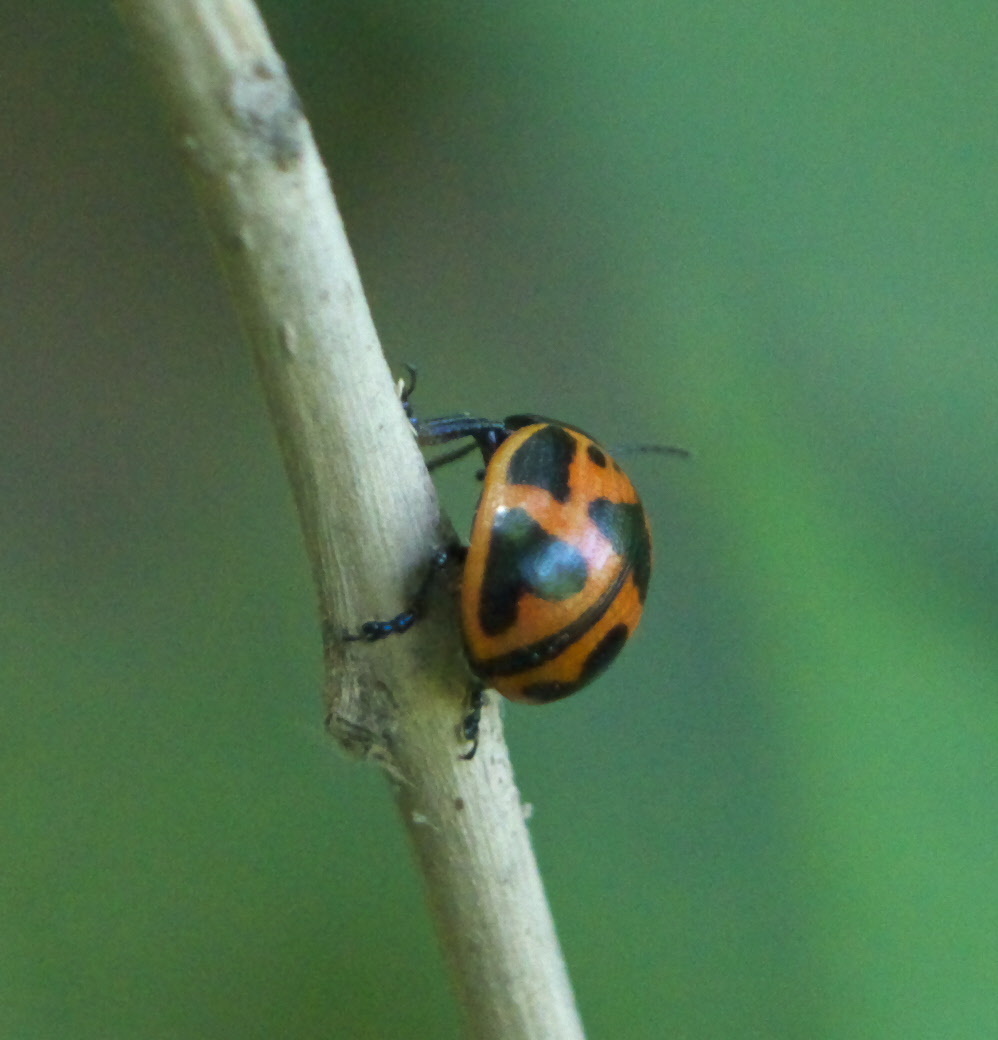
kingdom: Animalia
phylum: Arthropoda
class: Insecta
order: Coleoptera
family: Chrysomelidae
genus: Labidomera
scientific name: Labidomera clivicollis
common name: Swamp milkweed leaf beetle
